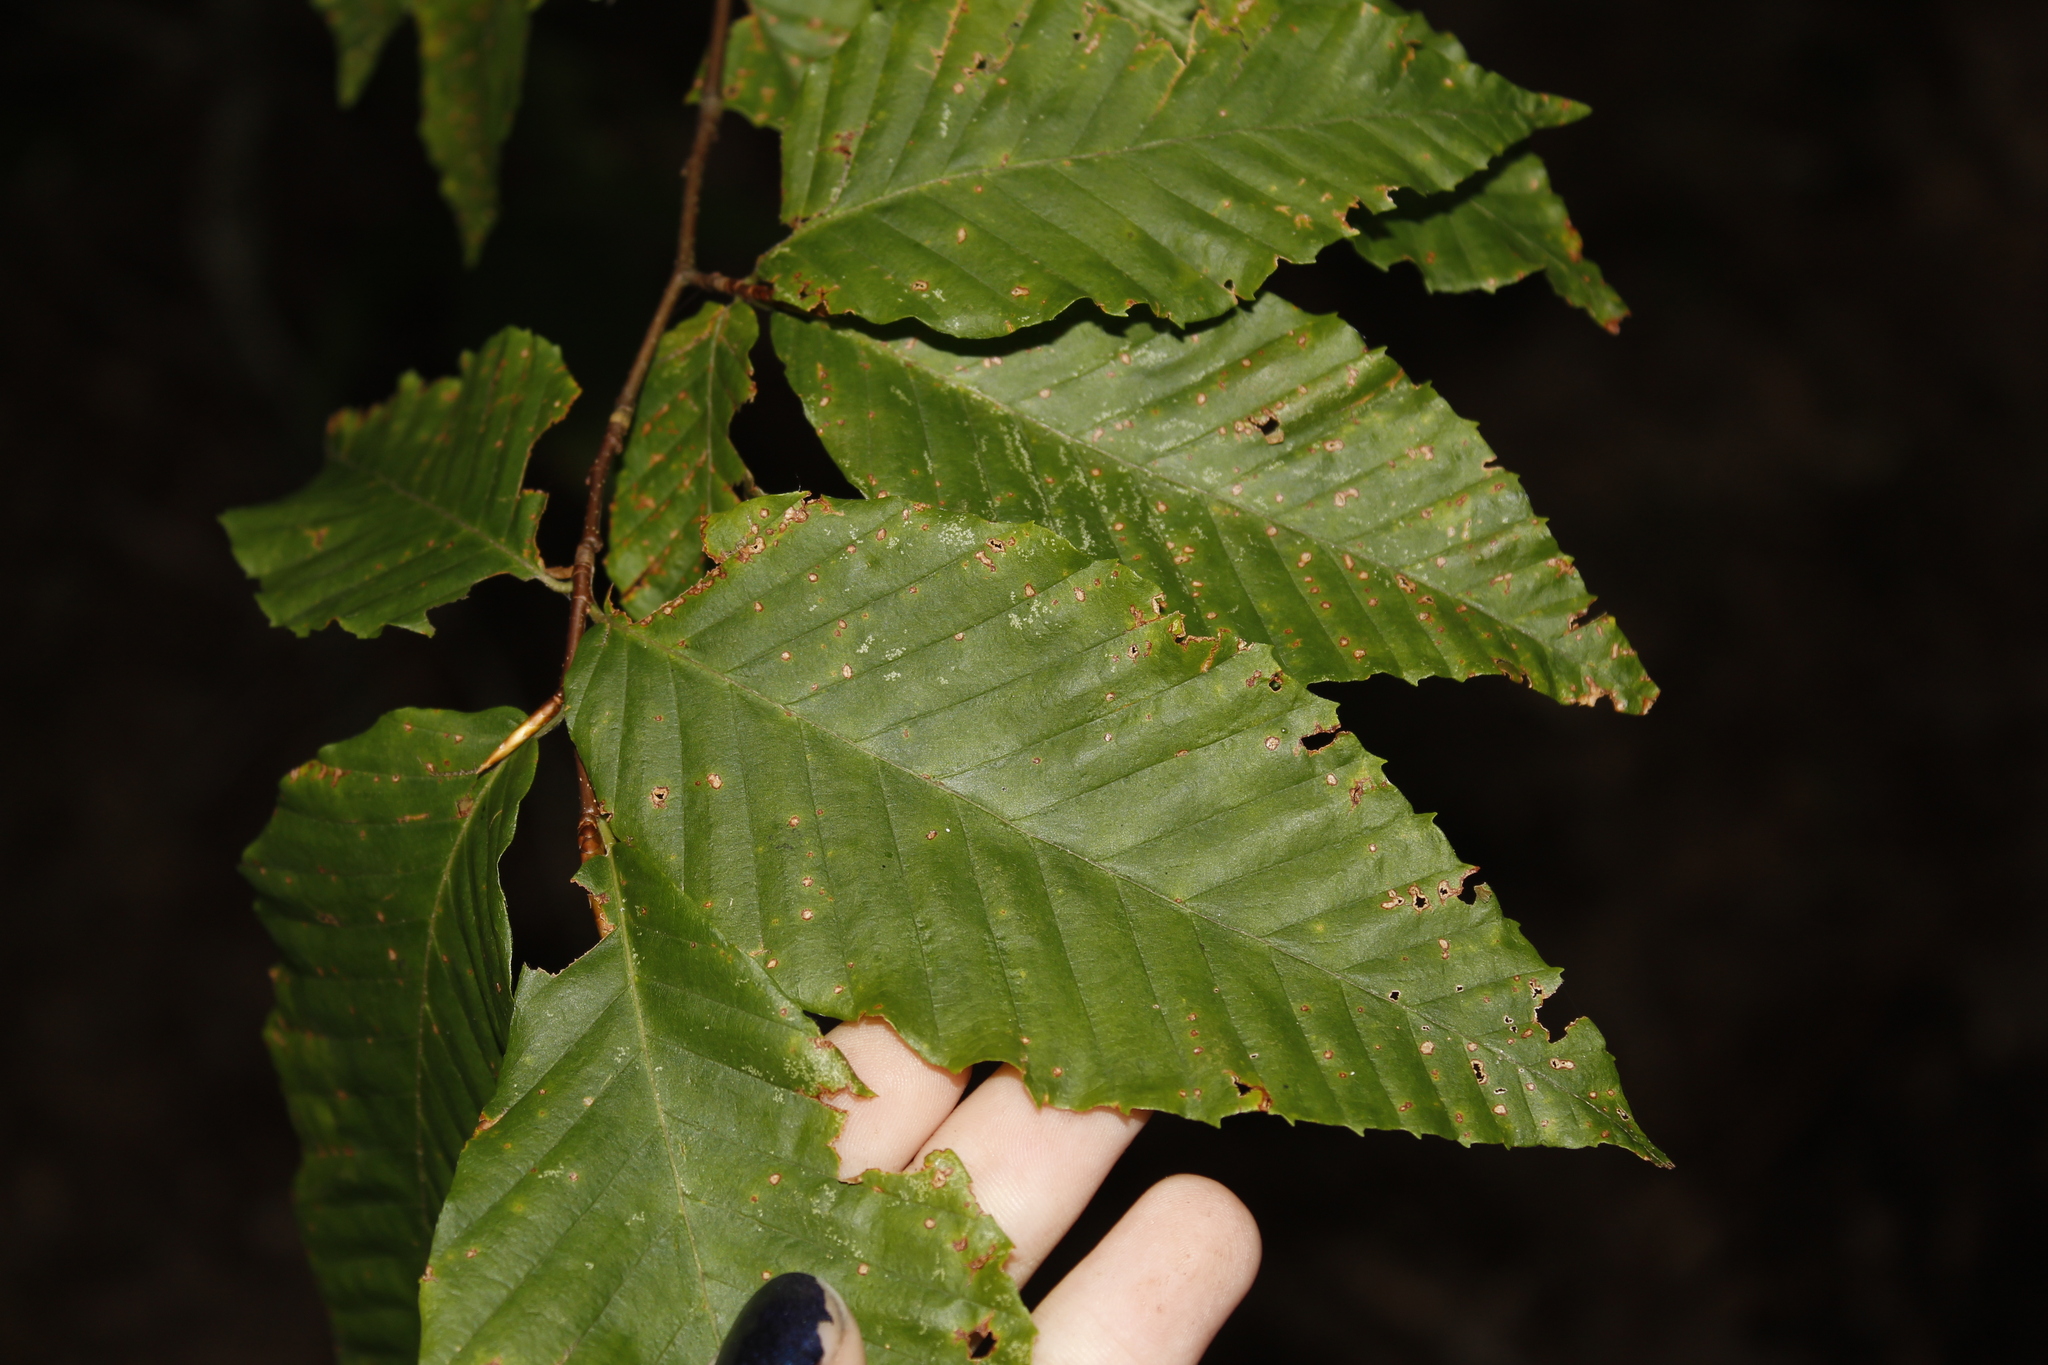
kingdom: Plantae
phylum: Tracheophyta
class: Magnoliopsida
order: Fagales
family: Fagaceae
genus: Fagus
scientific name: Fagus grandifolia
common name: American beech
